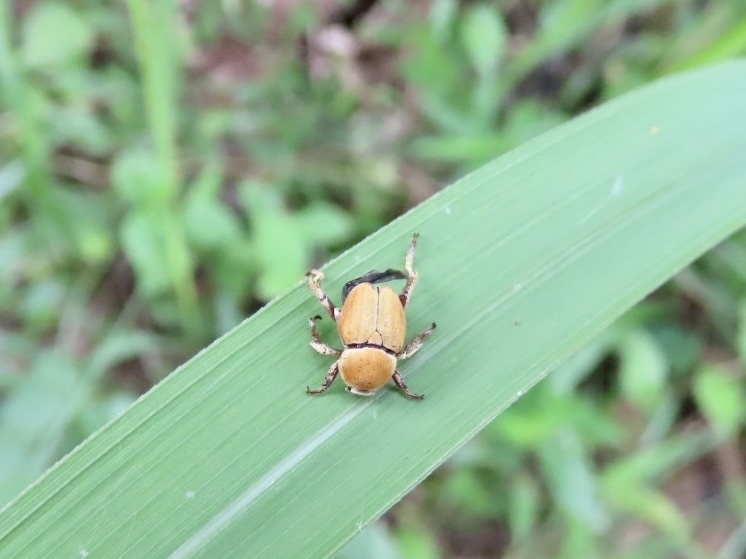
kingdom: Animalia
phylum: Arthropoda
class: Insecta
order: Coleoptera
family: Scarabaeidae
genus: Dichelomorpha
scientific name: Dichelomorpha ochracea
